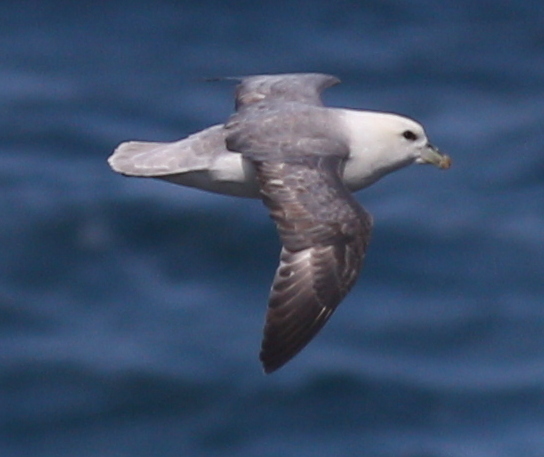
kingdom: Animalia
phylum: Chordata
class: Aves
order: Procellariiformes
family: Procellariidae
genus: Fulmarus
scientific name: Fulmarus glacialis
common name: Northern fulmar
